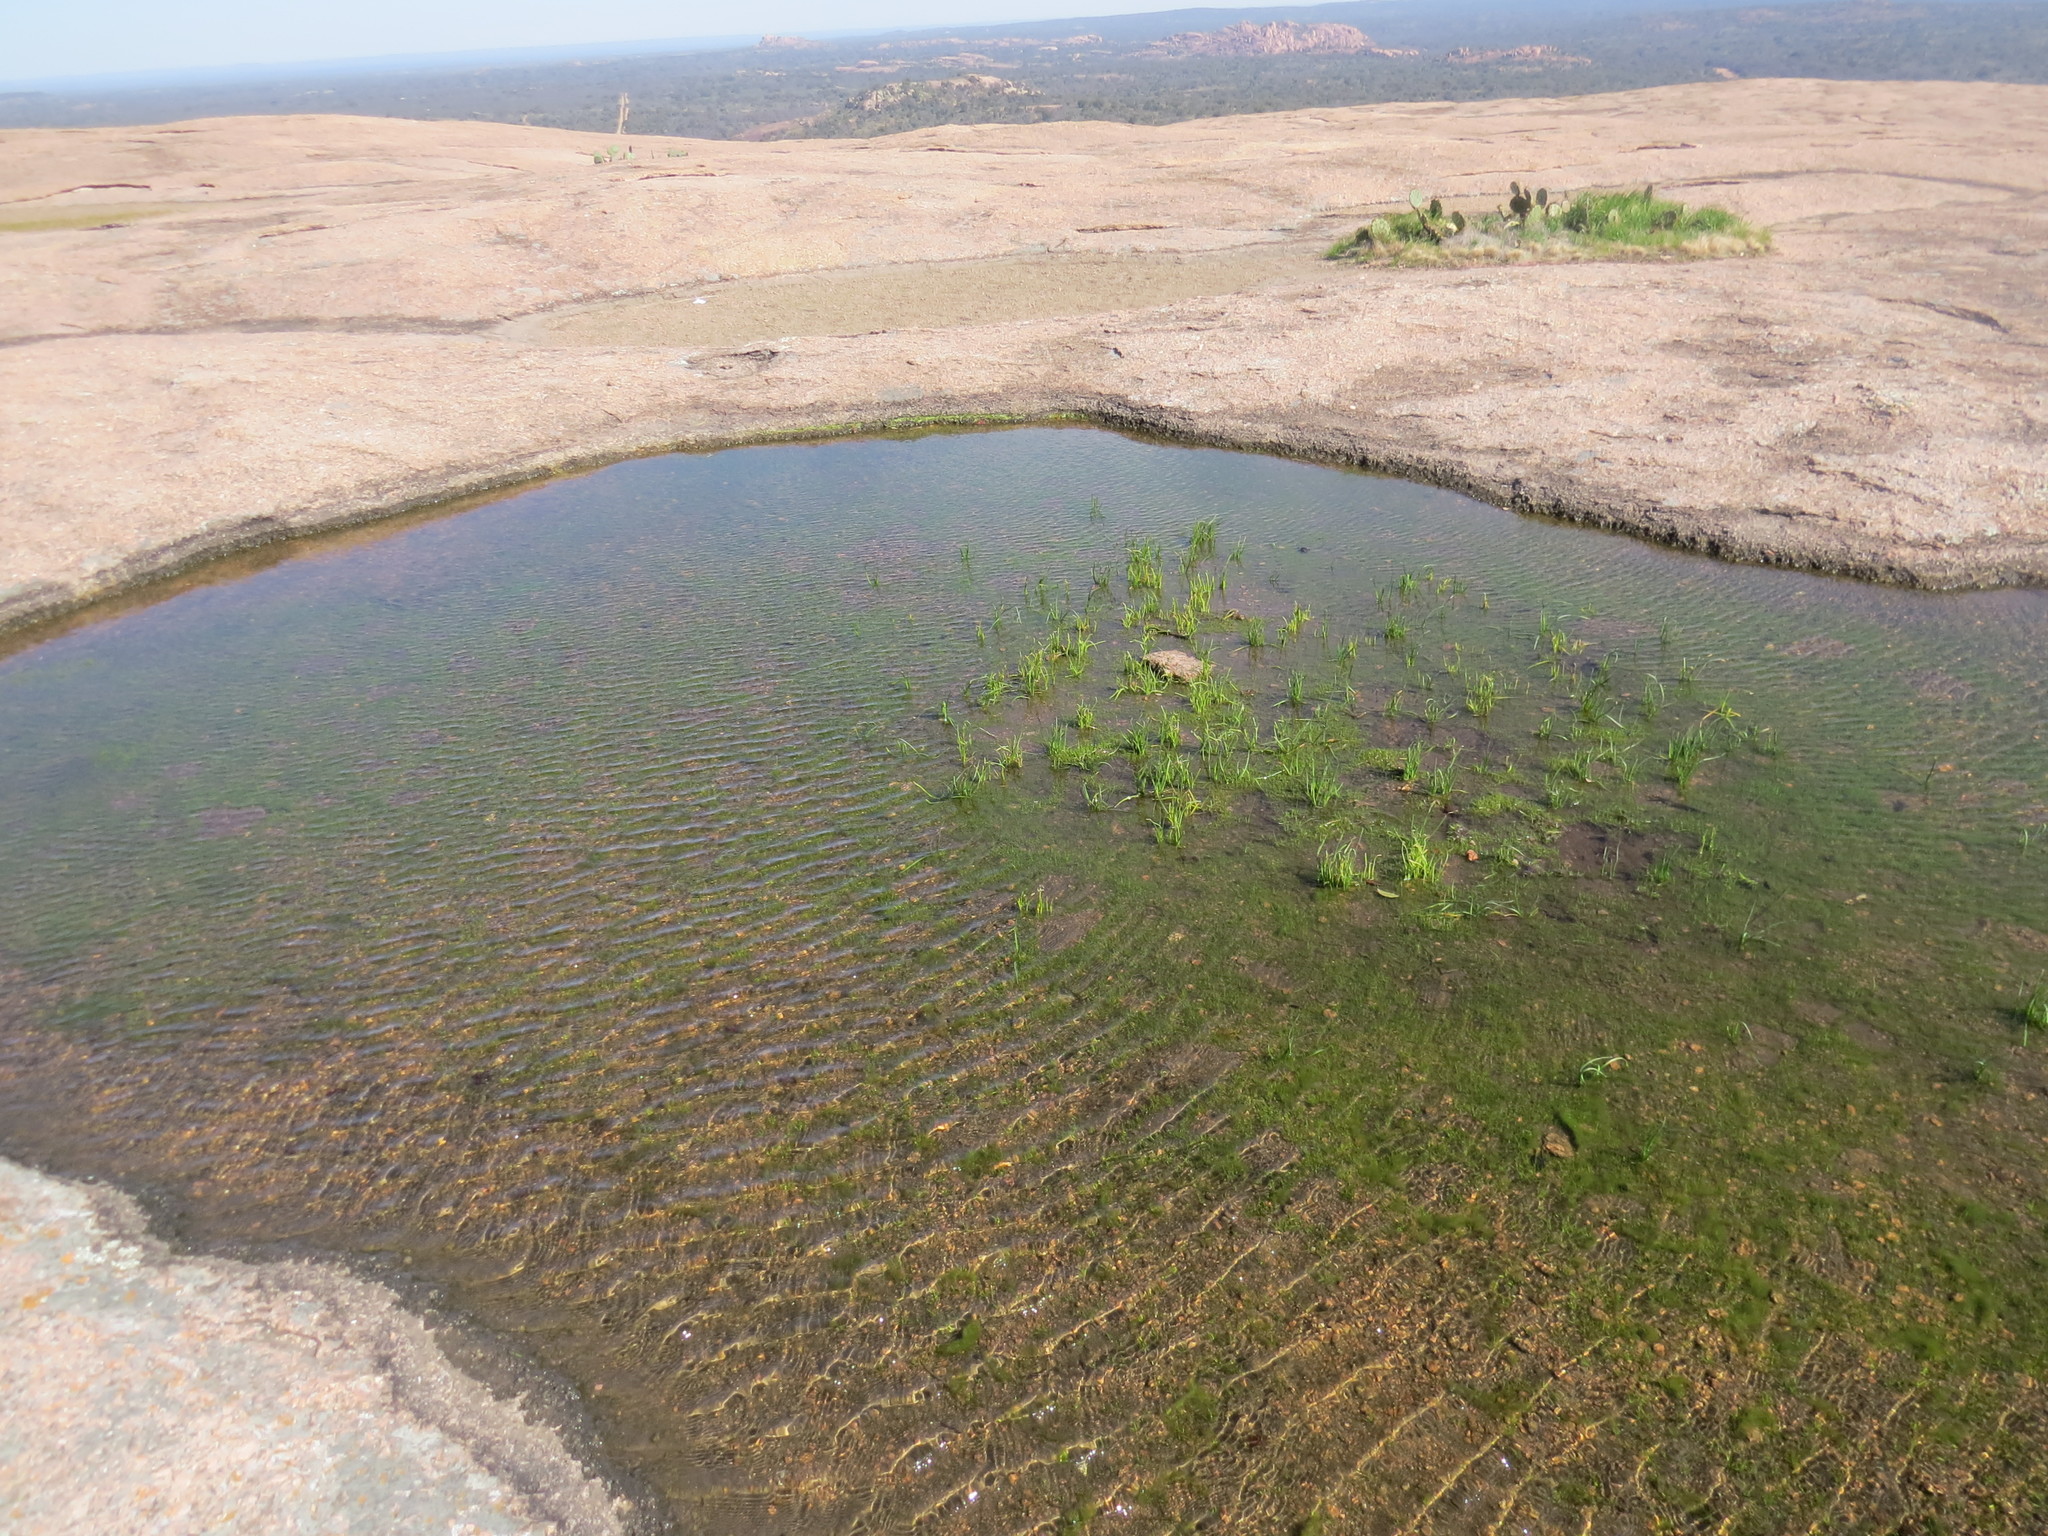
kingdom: Plantae
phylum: Tracheophyta
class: Lycopodiopsida
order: Isoetales
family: Isoetaceae
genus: Isoetes
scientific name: Isoetes lithophila
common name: Rock quillwort
